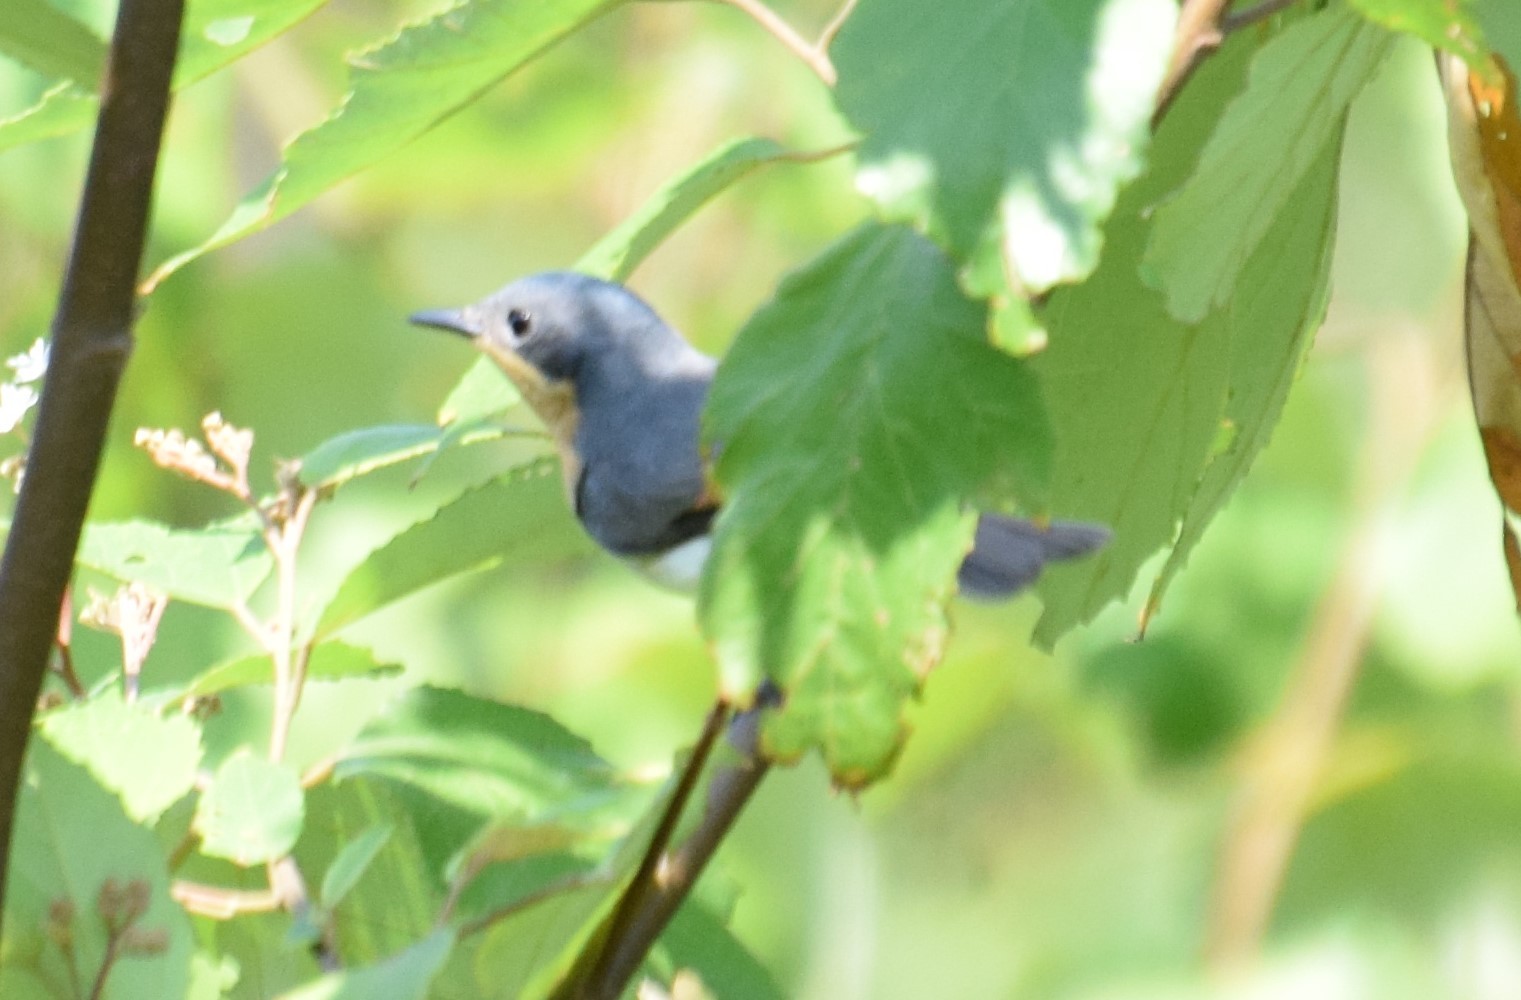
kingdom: Animalia
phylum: Chordata
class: Aves
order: Passeriformes
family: Monarchidae
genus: Myiagra
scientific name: Myiagra rubecula
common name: Leaden flycatcher
